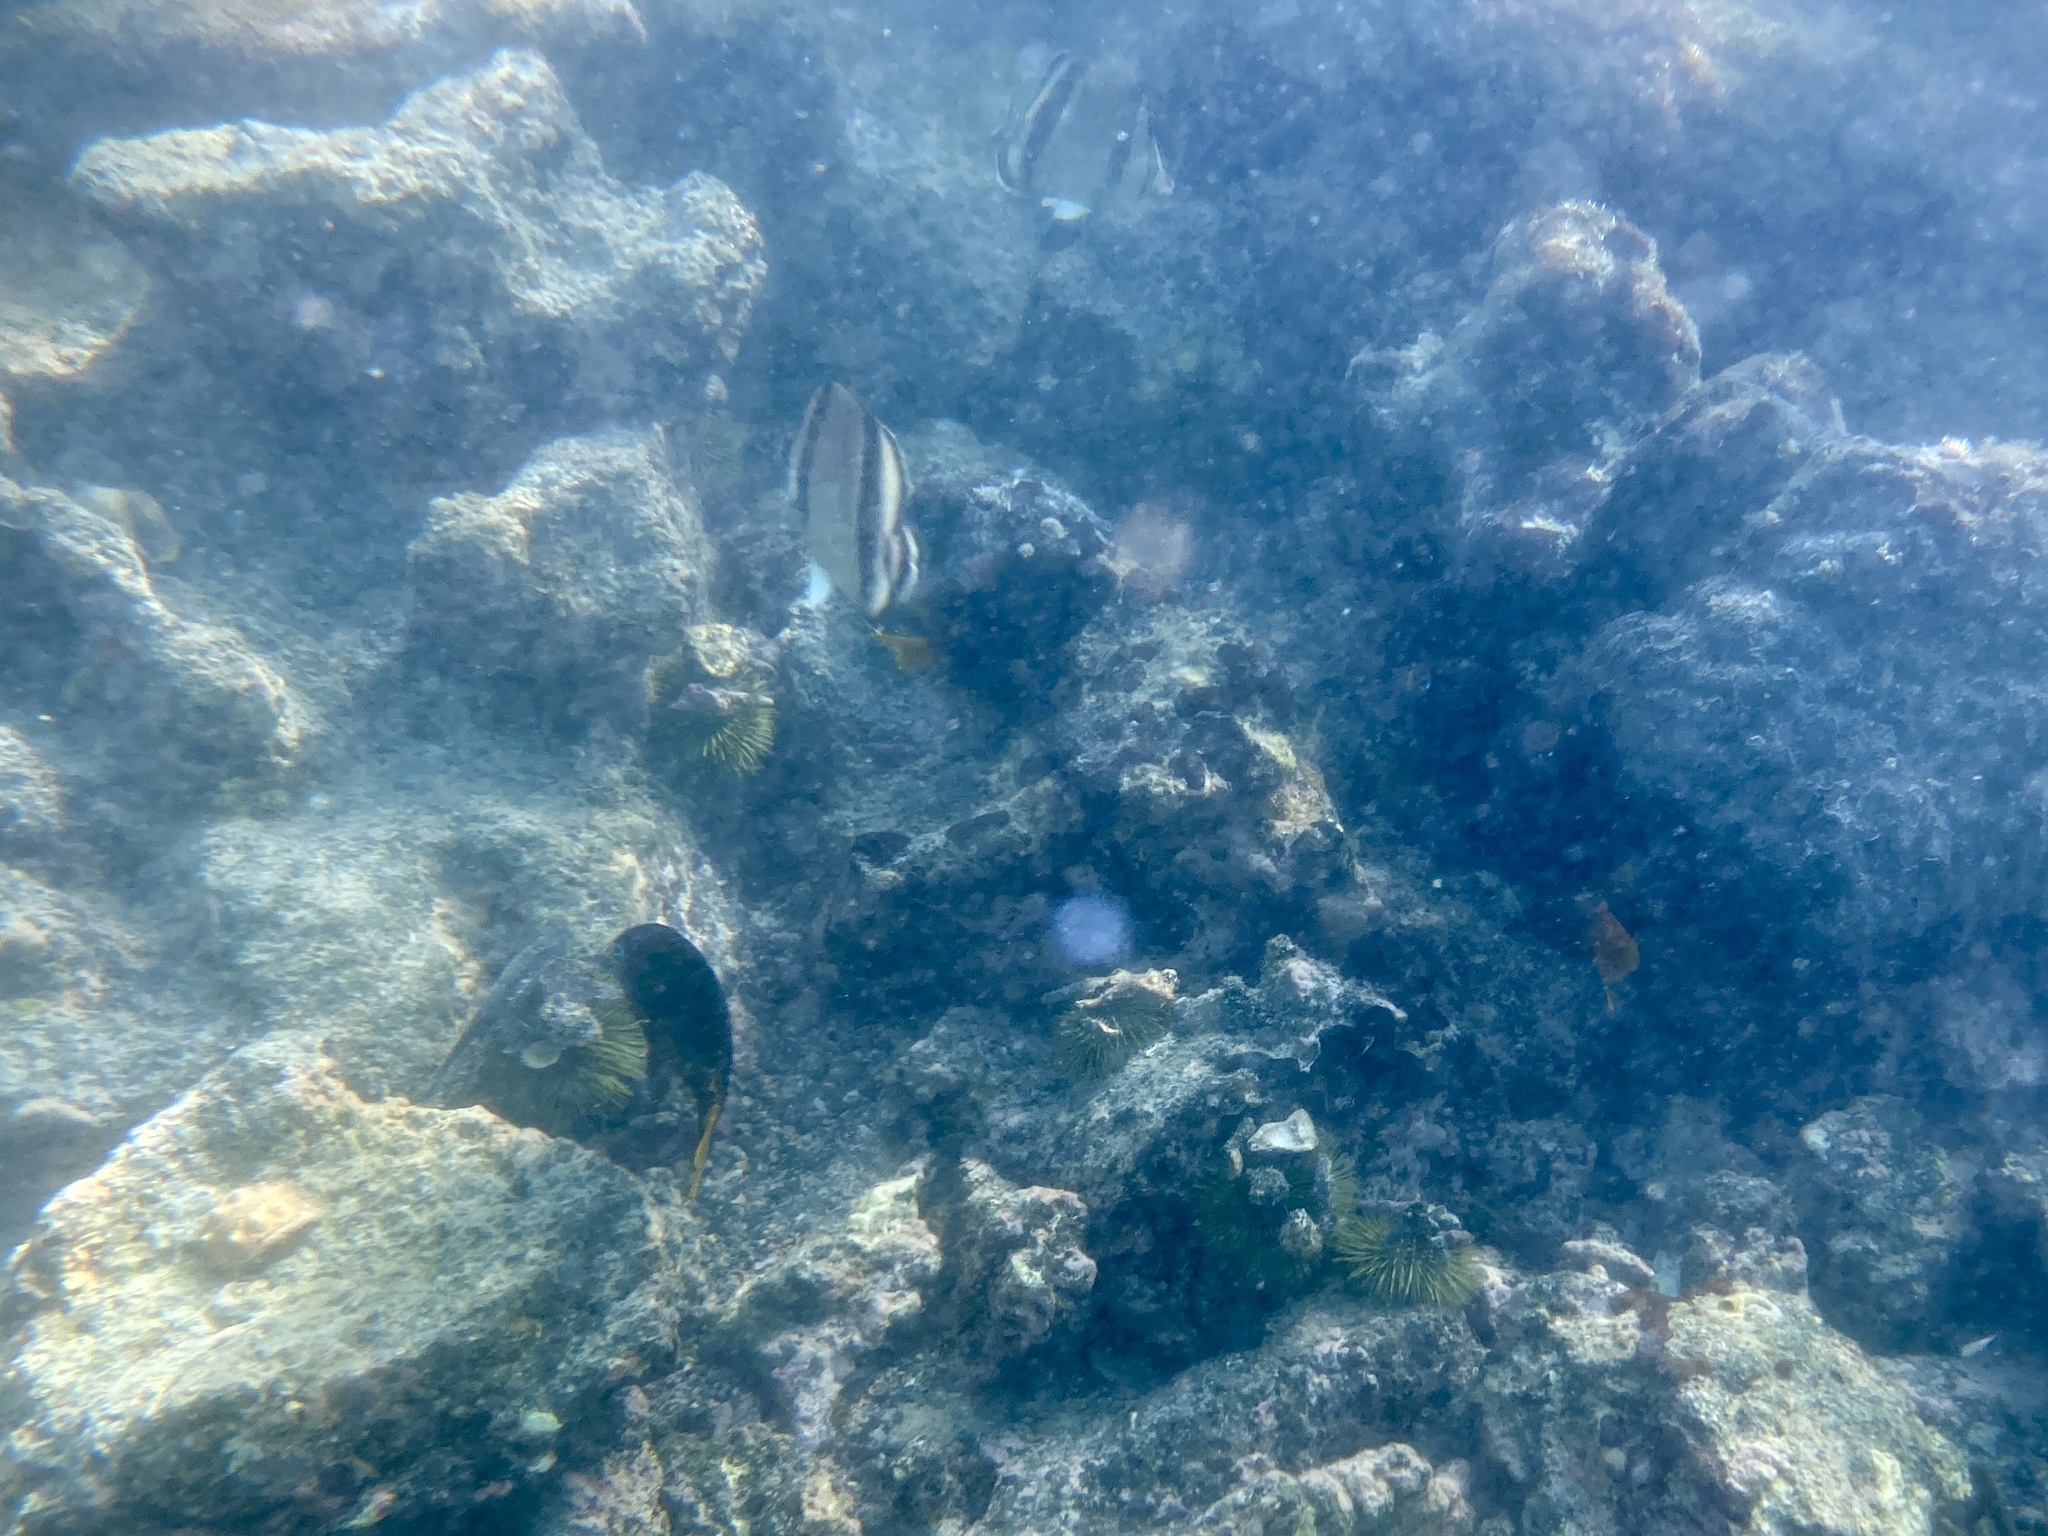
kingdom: Animalia
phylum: Chordata
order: Perciformes
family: Chaetodontidae
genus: Chaetodon
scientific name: Chaetodon humeralis
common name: Threebanded butterflyfish
